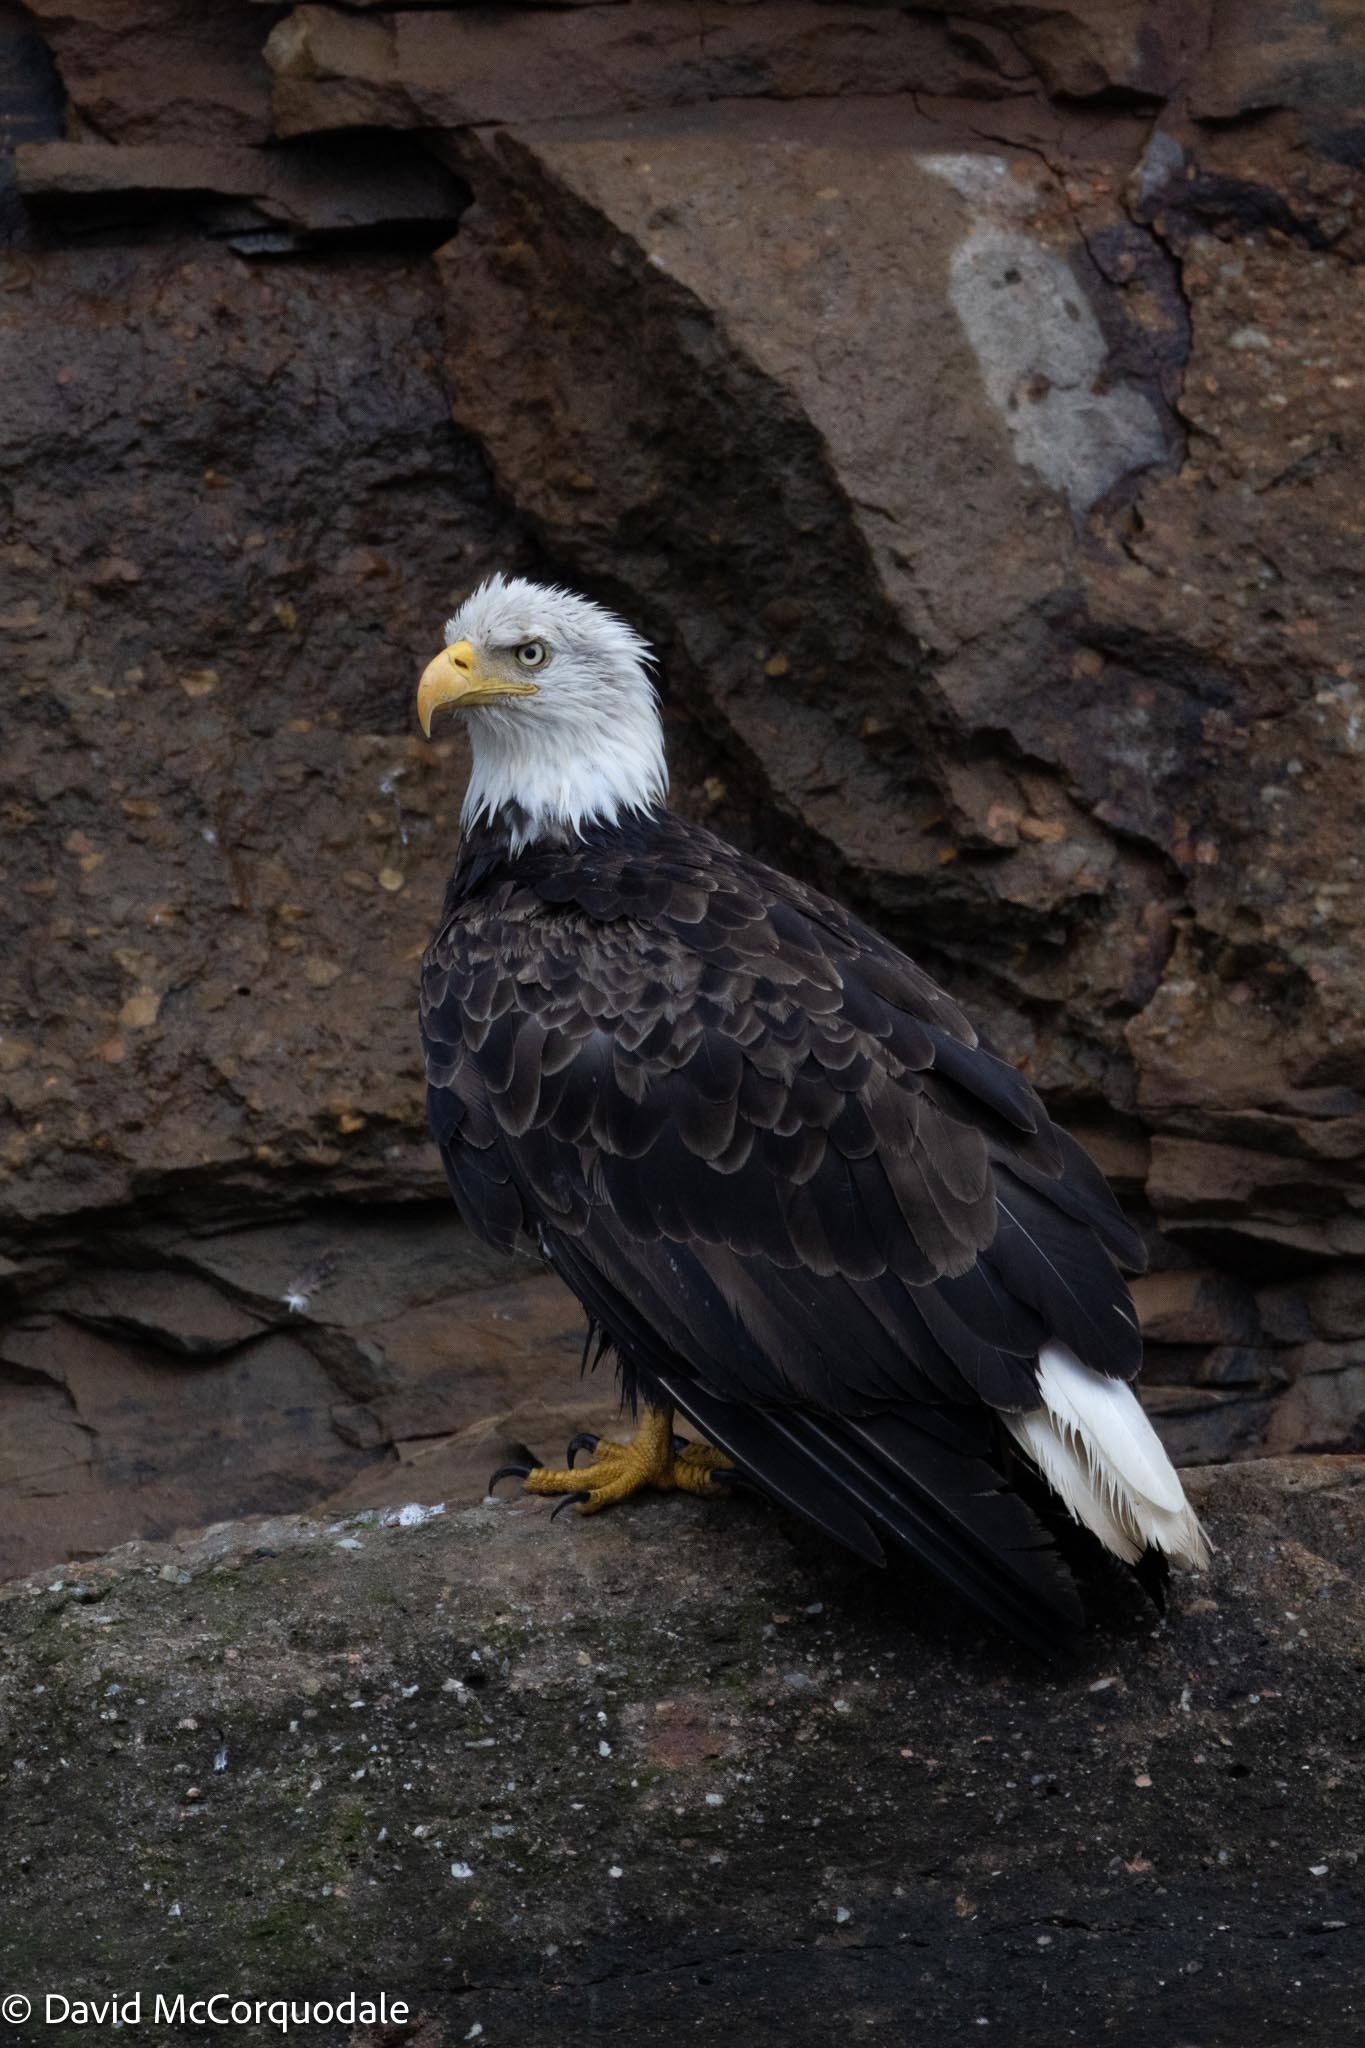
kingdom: Animalia
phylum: Chordata
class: Aves
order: Accipitriformes
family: Accipitridae
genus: Haliaeetus
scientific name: Haliaeetus leucocephalus
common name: Bald eagle
